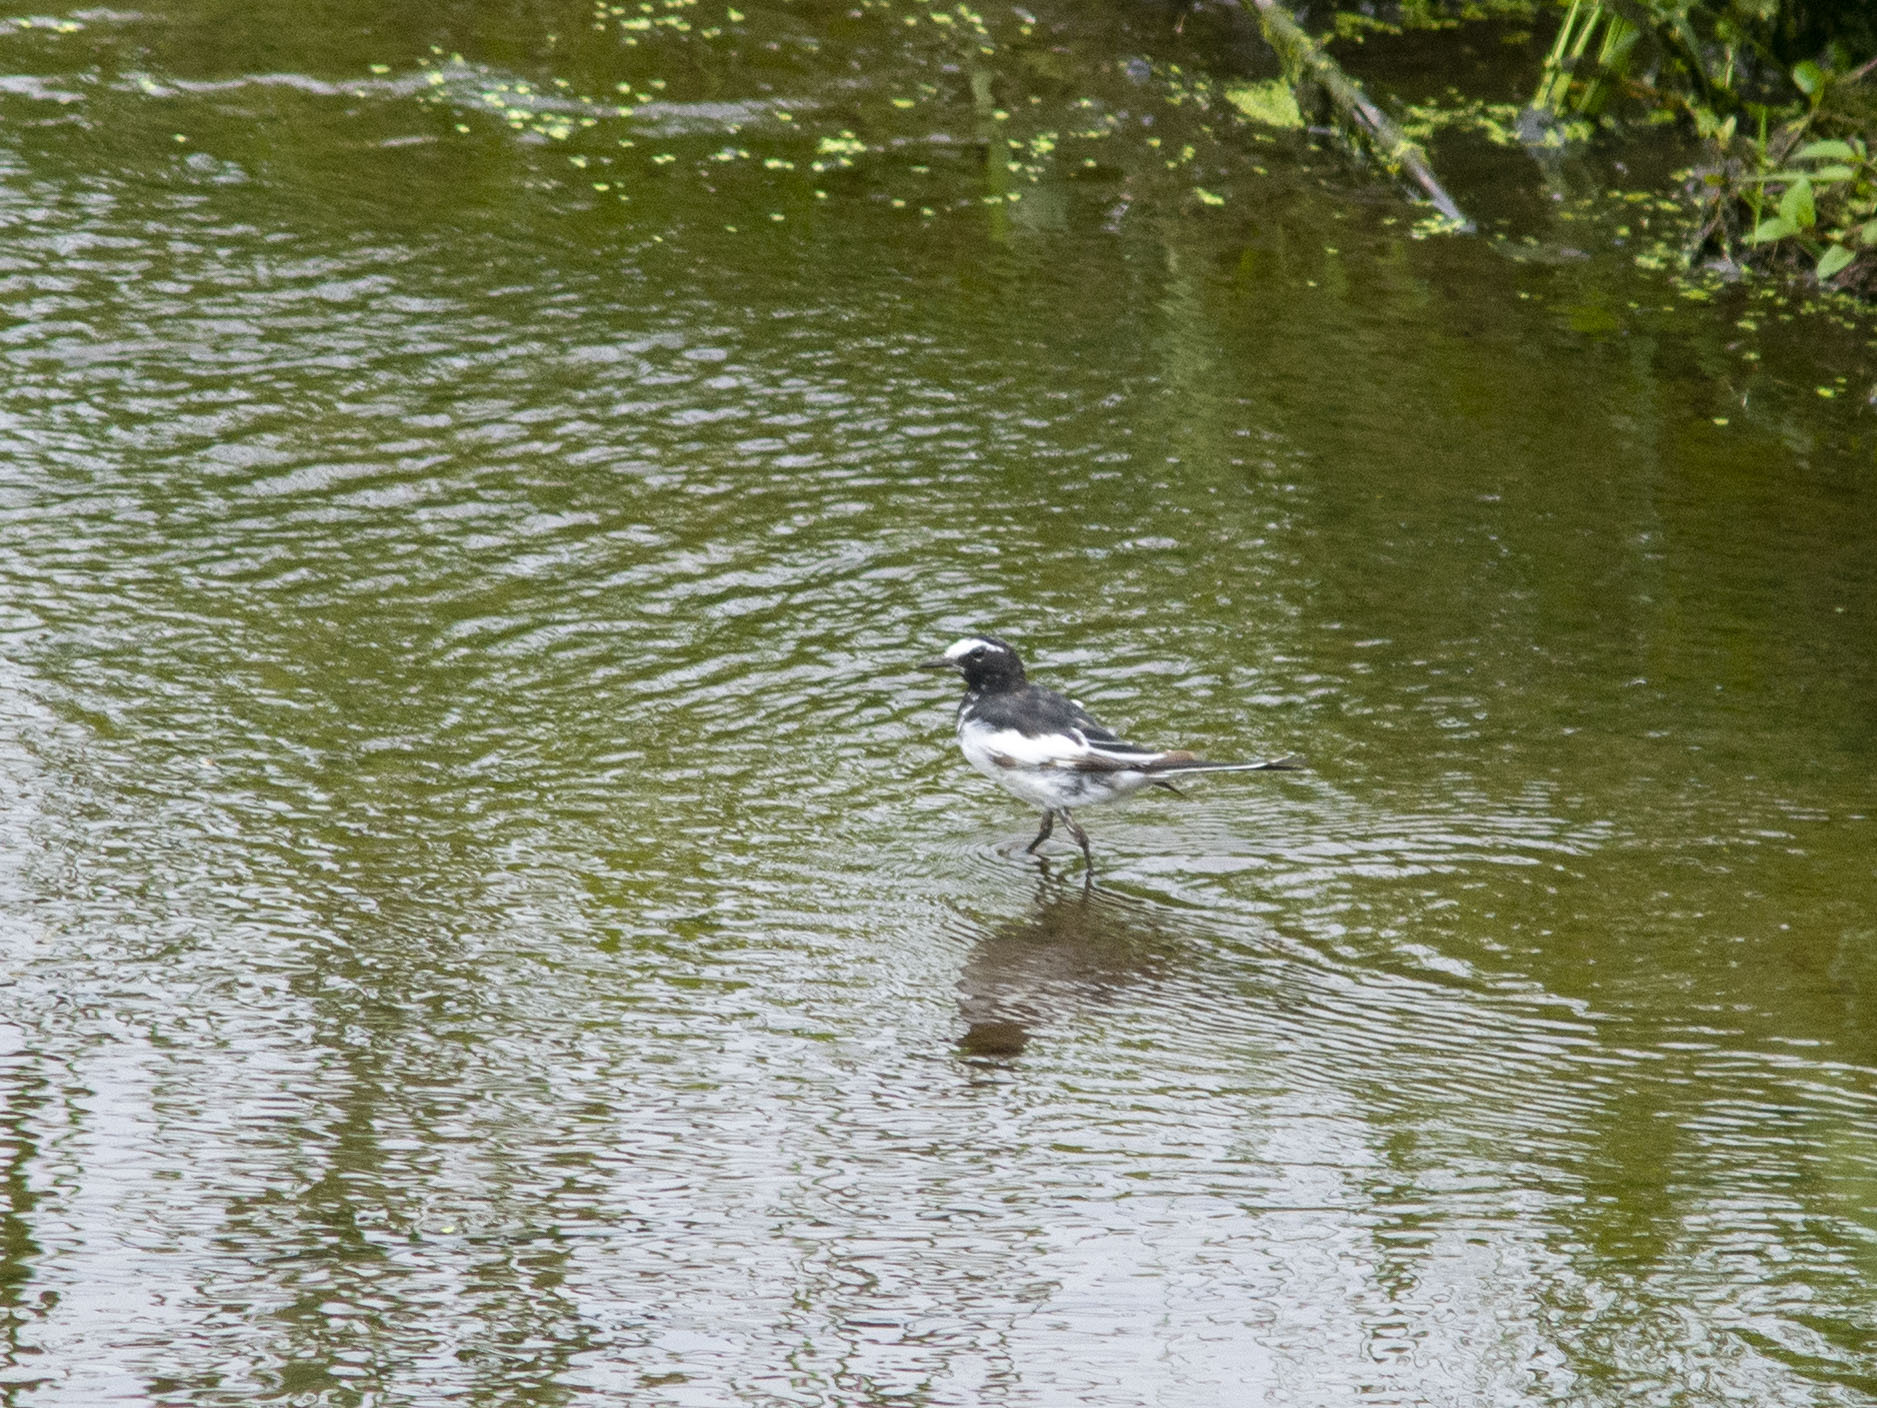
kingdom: Animalia
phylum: Chordata
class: Aves
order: Passeriformes
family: Motacillidae
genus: Motacilla
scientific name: Motacilla grandis
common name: Japanese wagtail
